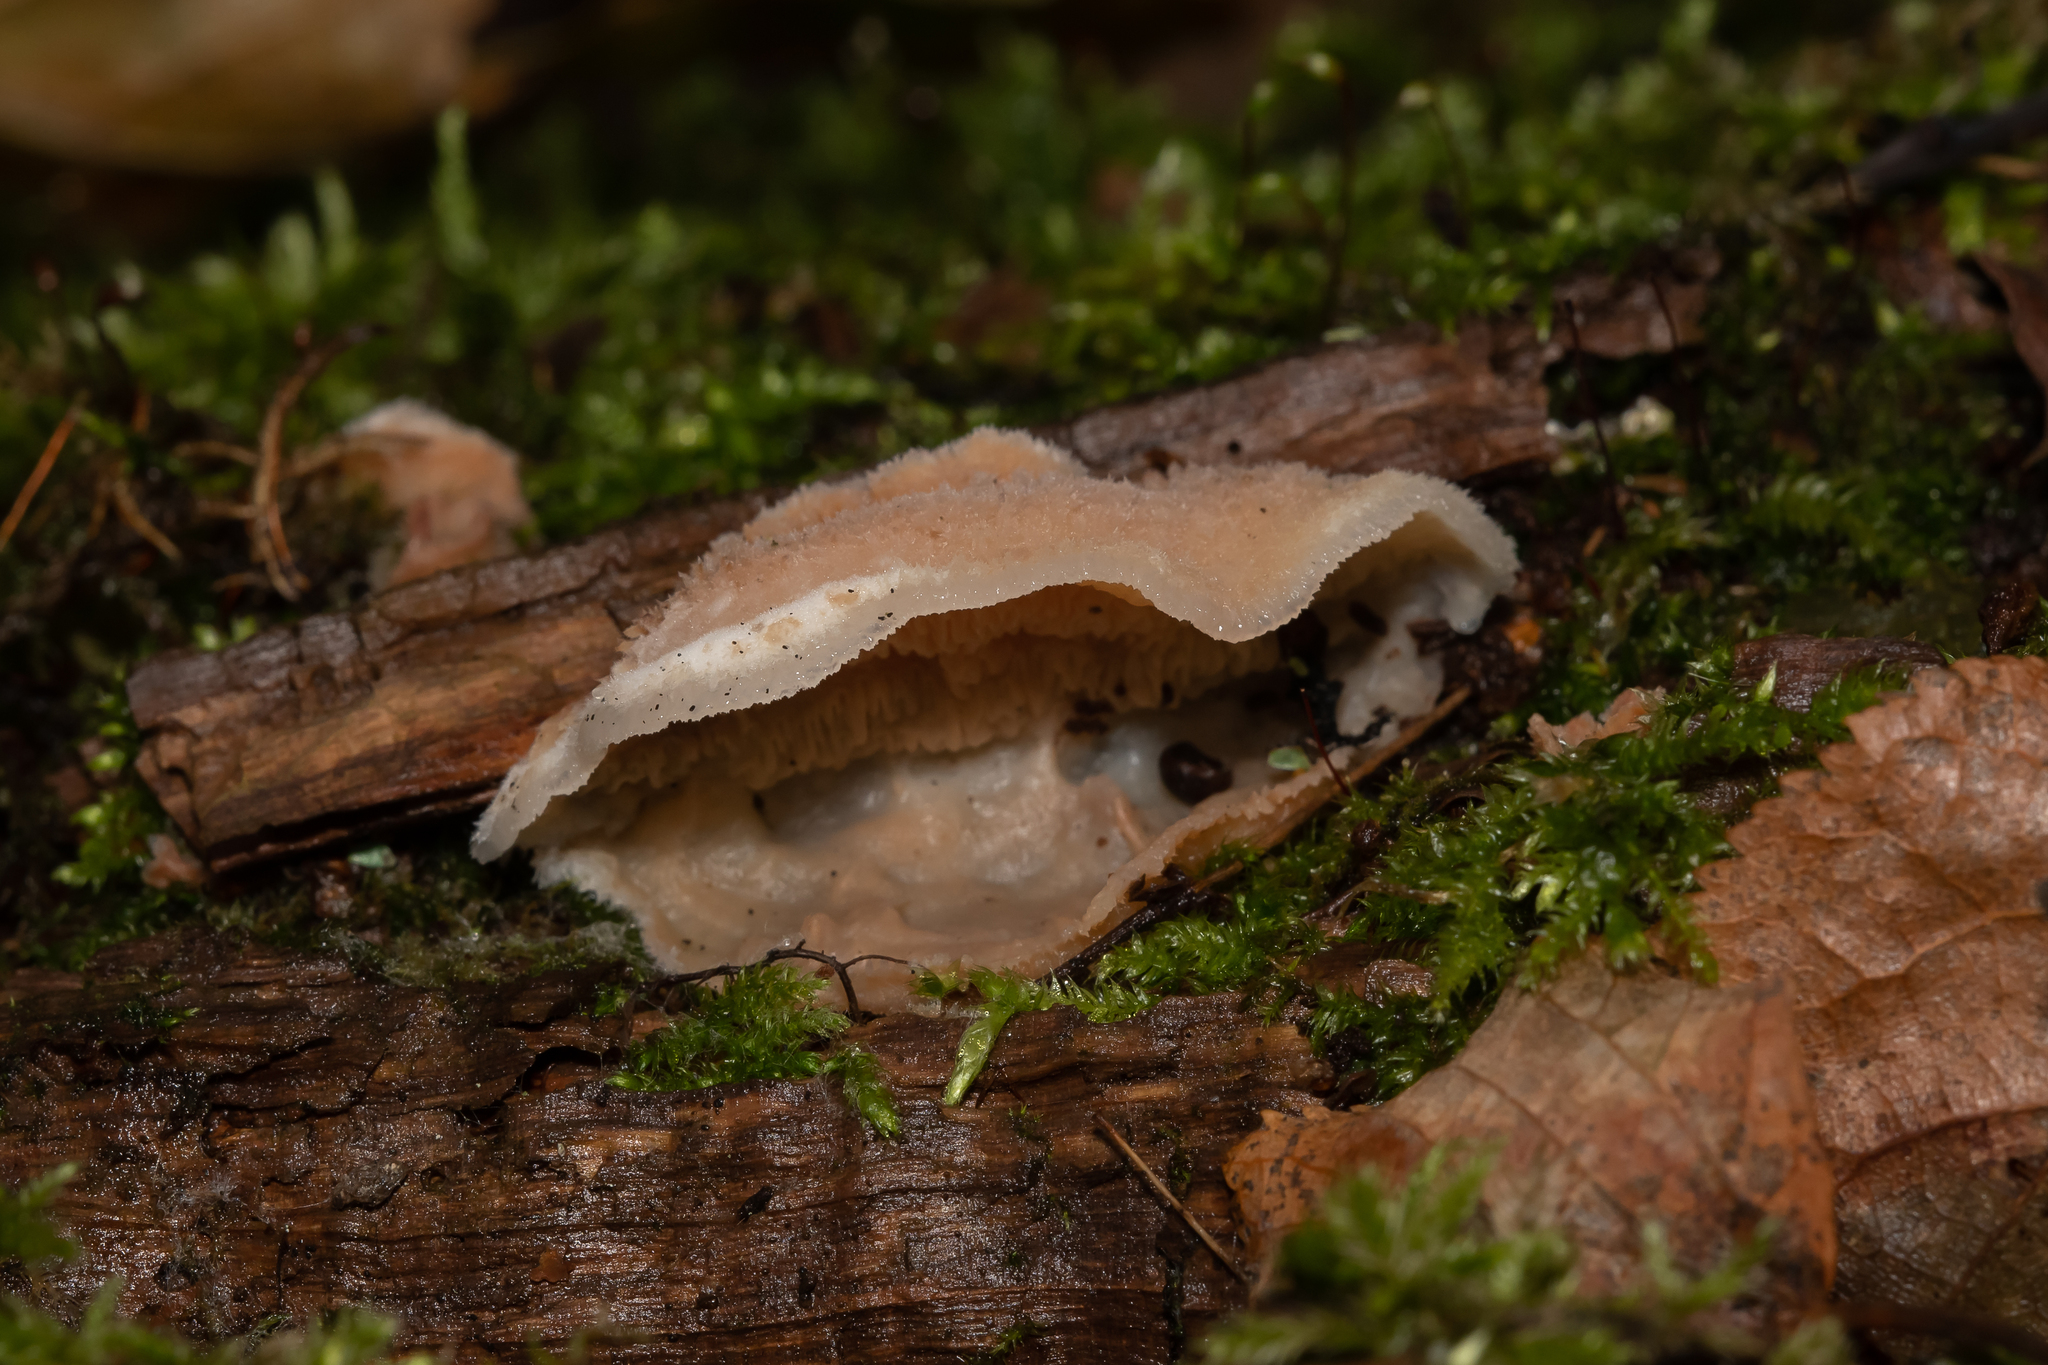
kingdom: Fungi
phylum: Basidiomycota
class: Agaricomycetes
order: Polyporales
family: Meruliaceae
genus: Phlebia
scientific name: Phlebia tremellosa
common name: Jelly rot
